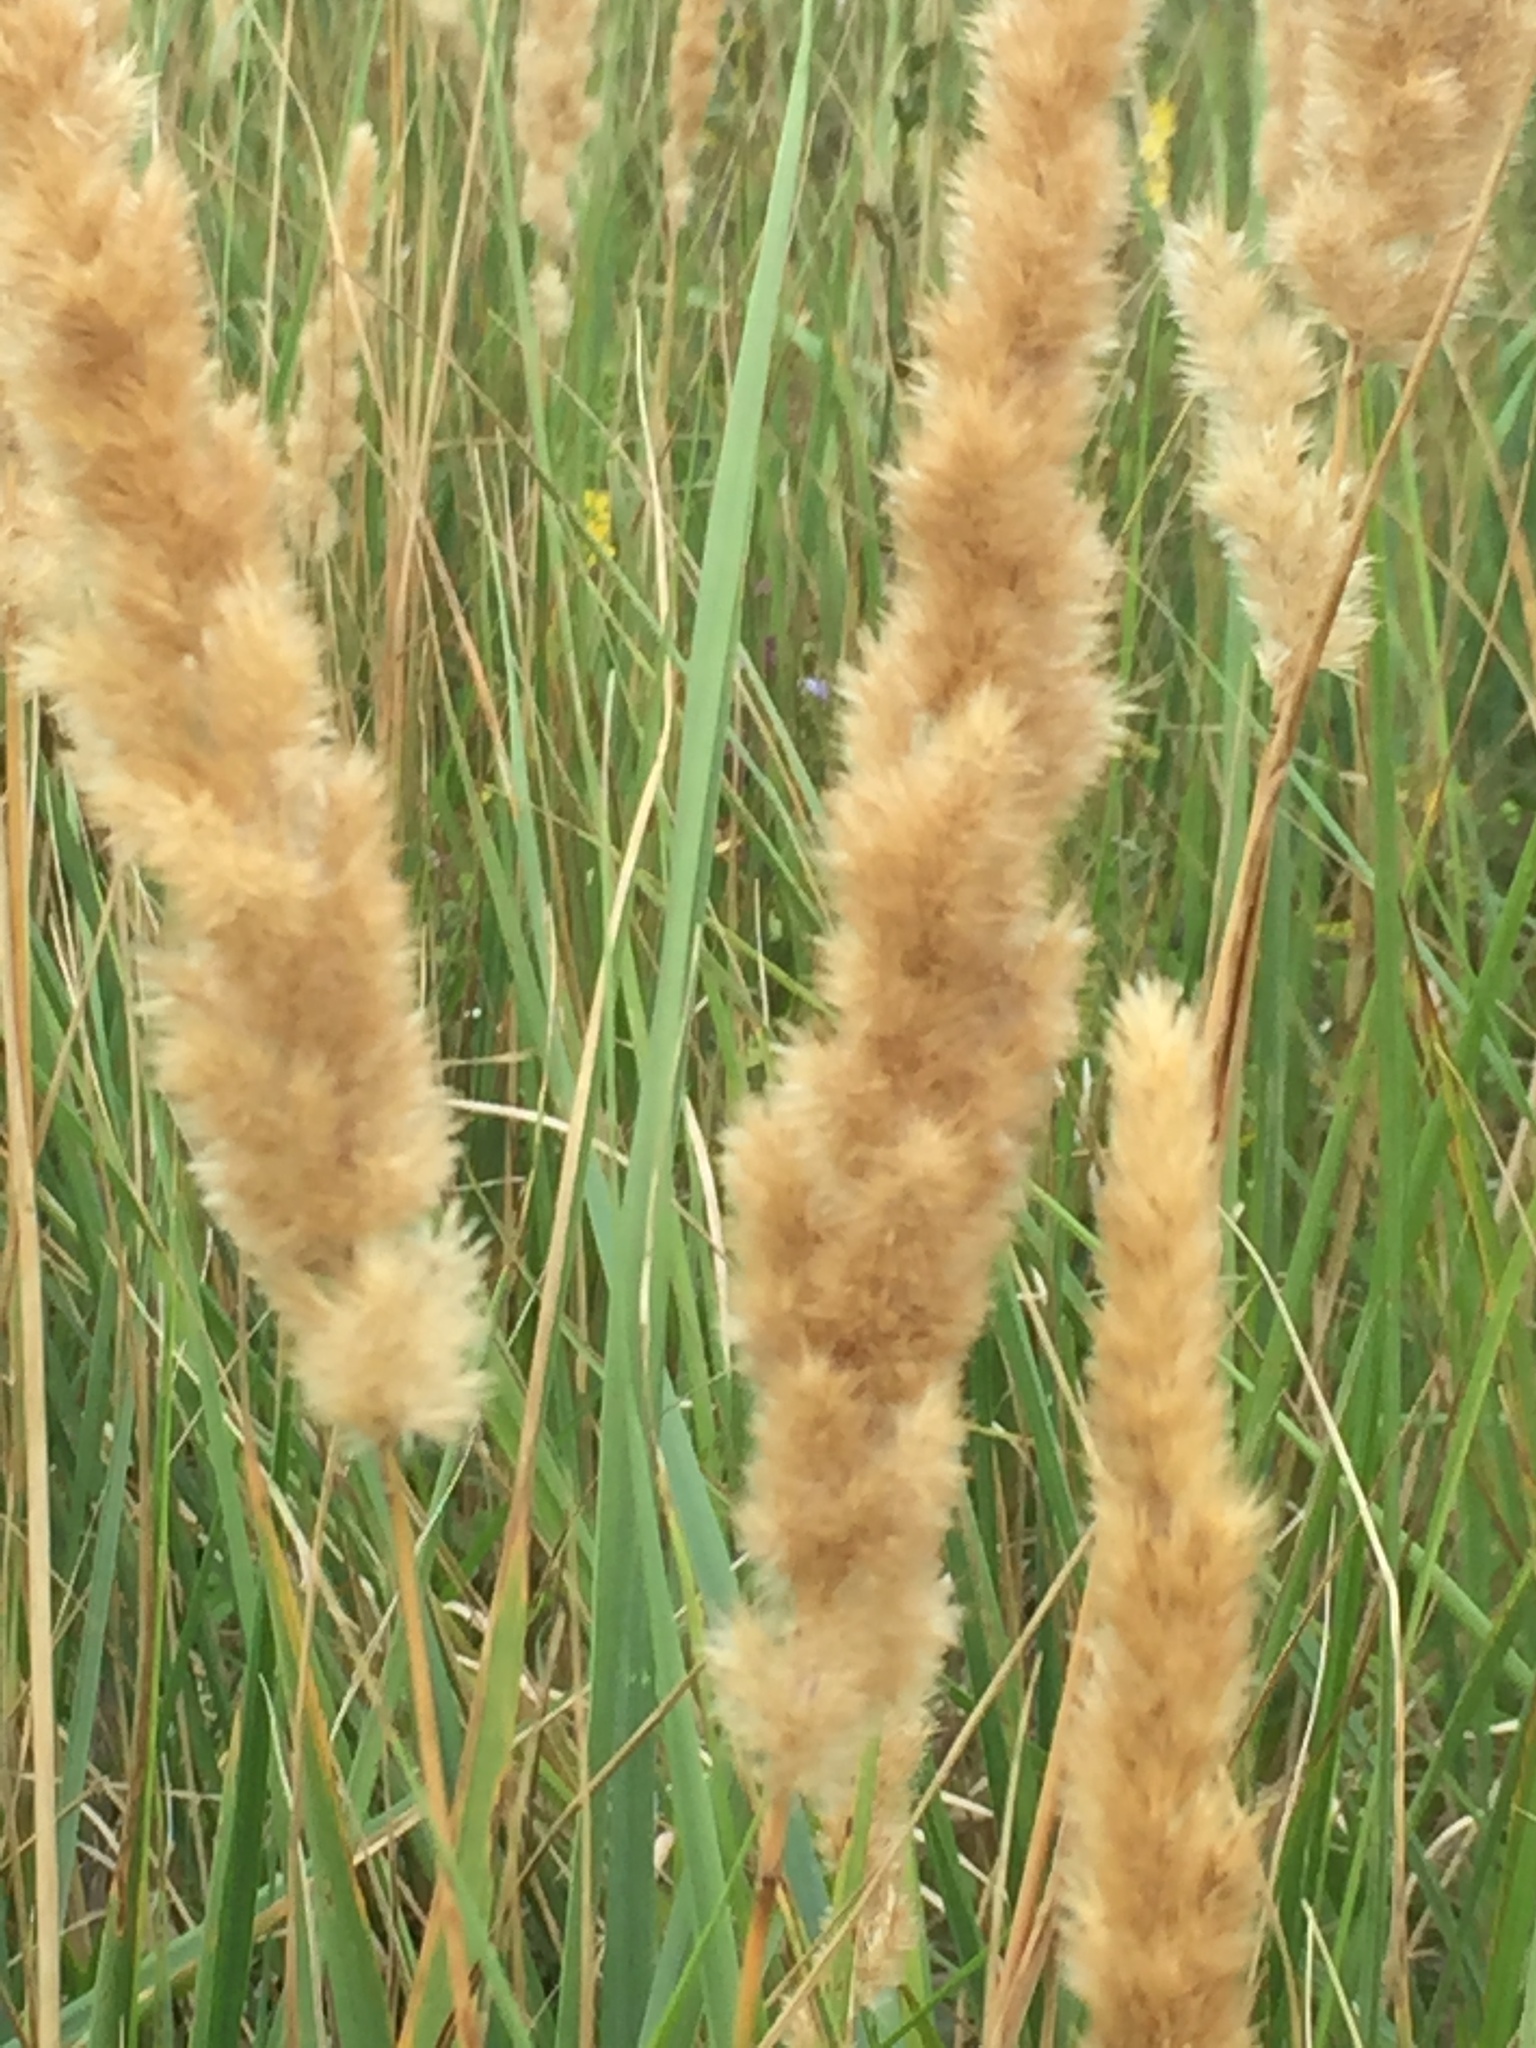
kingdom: Plantae
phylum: Tracheophyta
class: Liliopsida
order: Poales
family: Poaceae
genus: Calamagrostis
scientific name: Calamagrostis epigejos
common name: Wood small-reed
